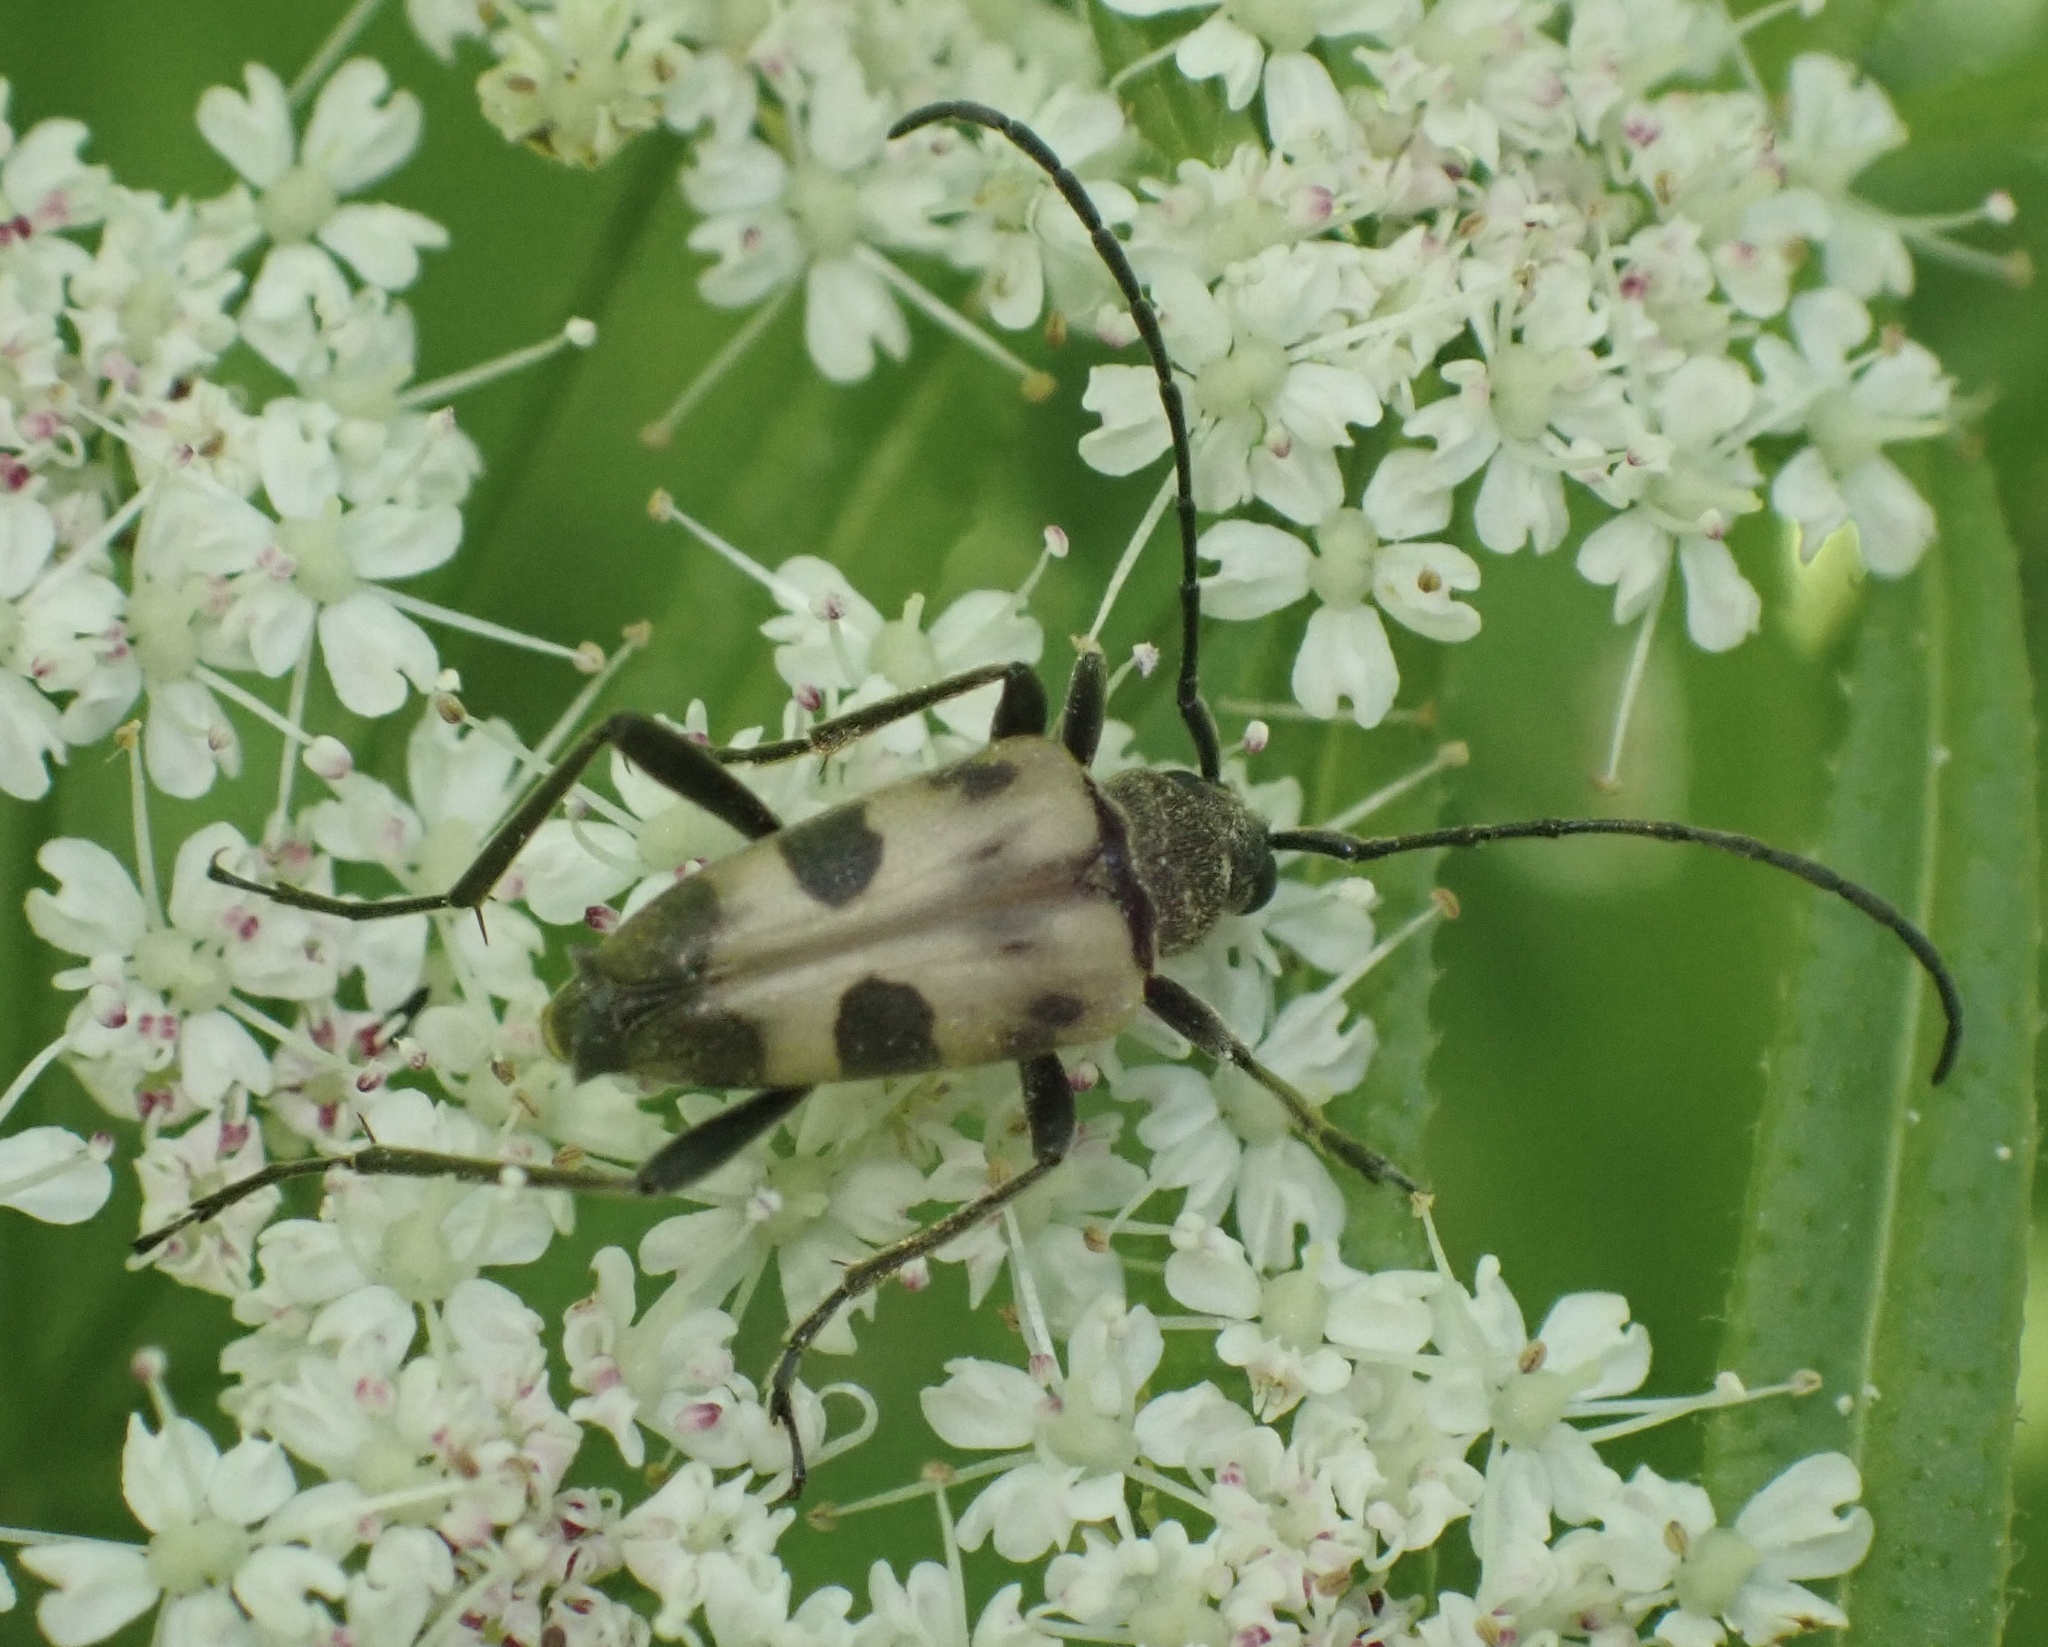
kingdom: Animalia
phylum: Arthropoda
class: Insecta
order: Coleoptera
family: Cerambycidae
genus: Pachytodes
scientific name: Pachytodes cerambyciformis
